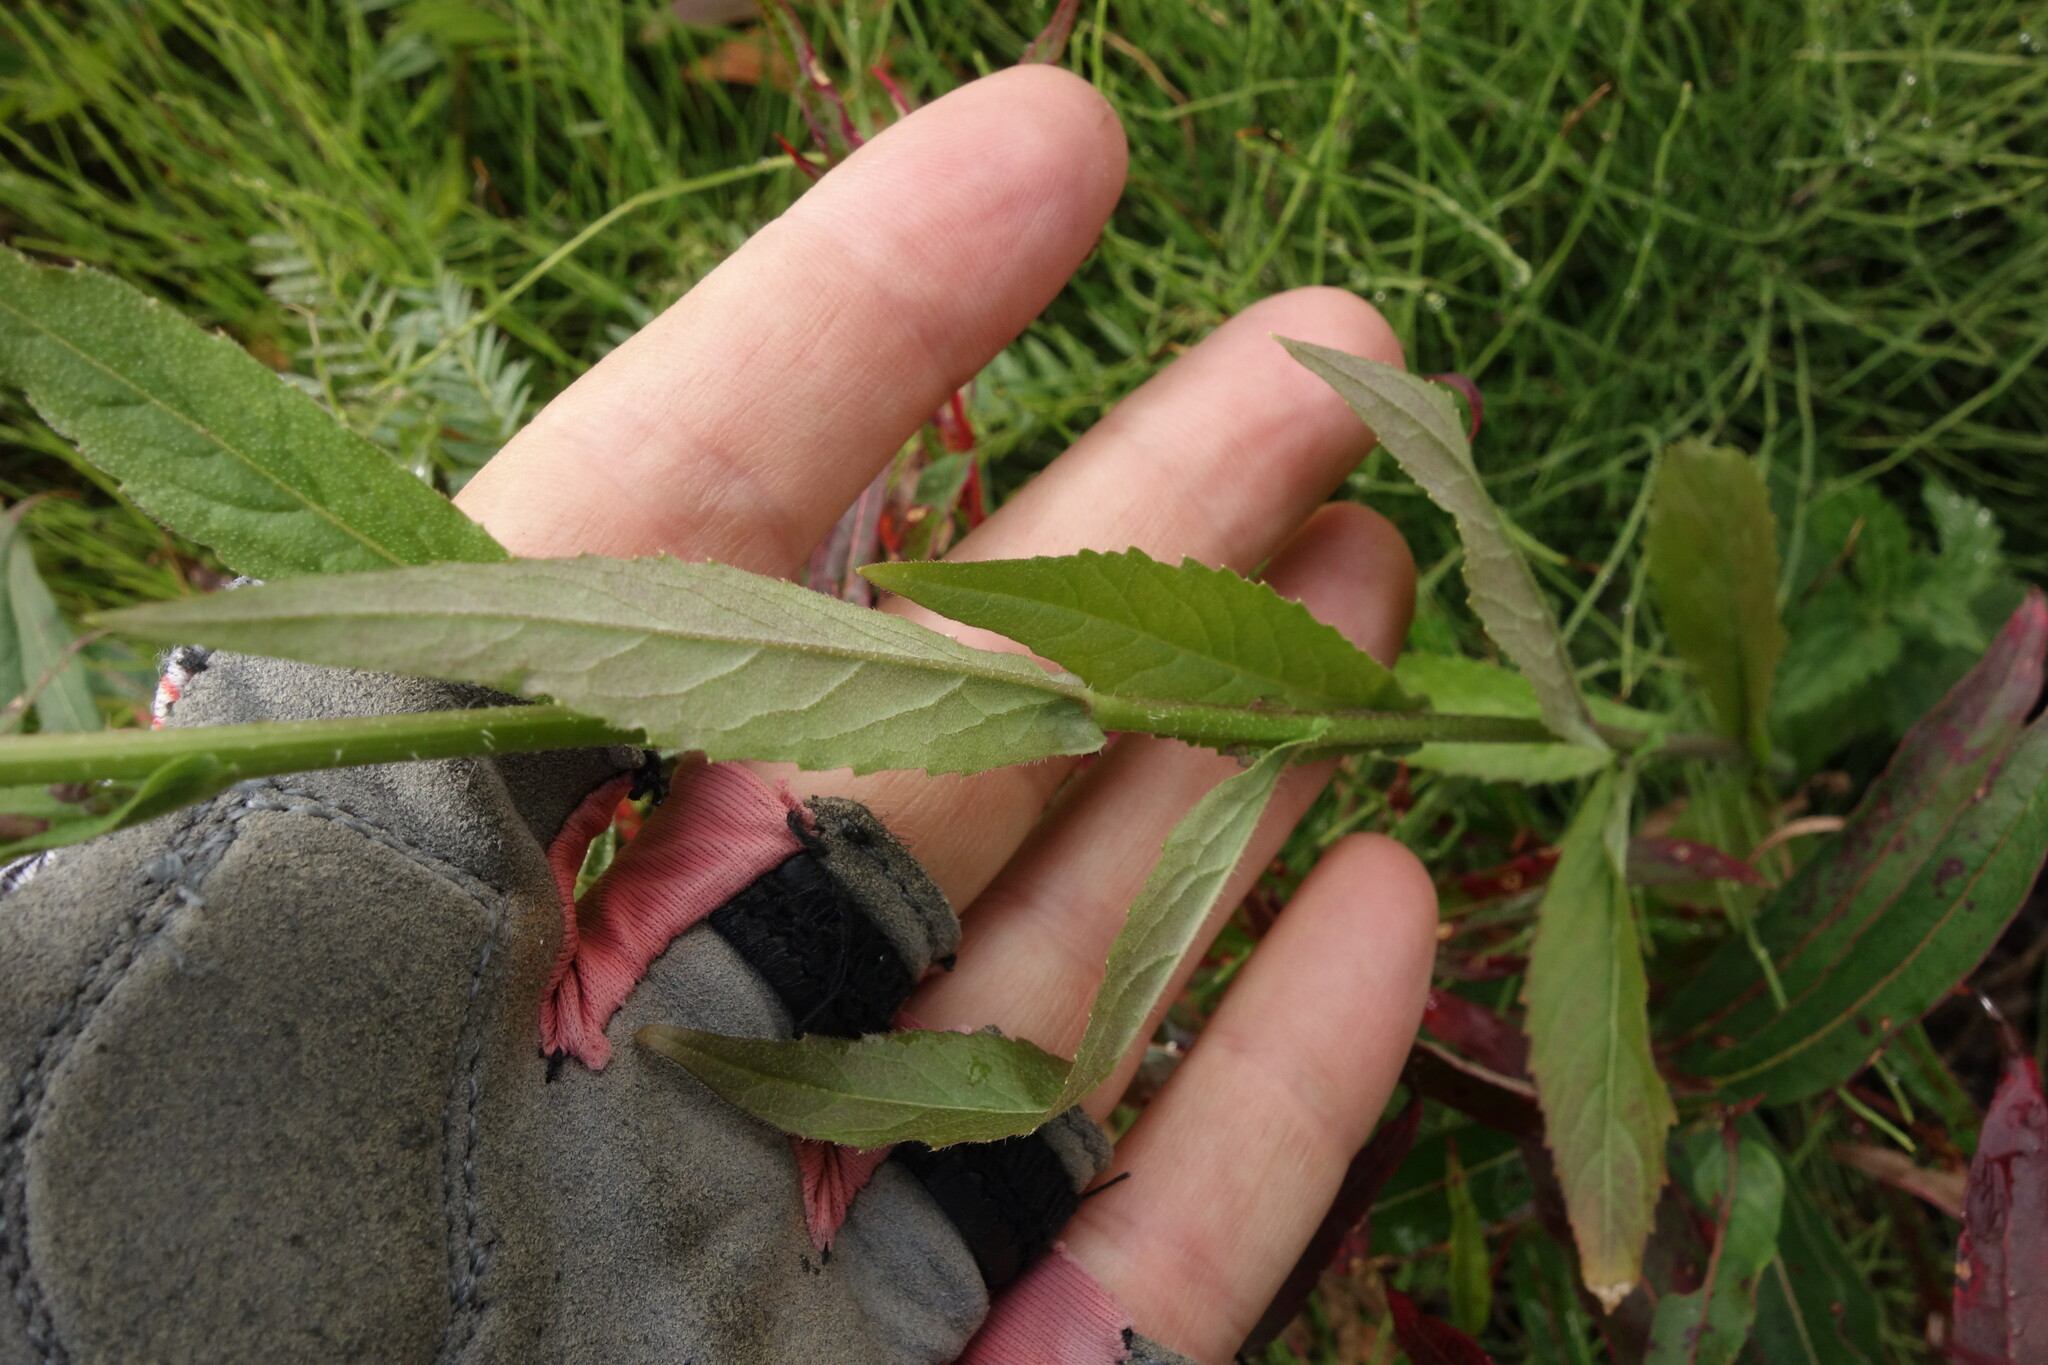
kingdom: Plantae
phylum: Tracheophyta
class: Magnoliopsida
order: Brassicales
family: Brassicaceae
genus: Catolobus
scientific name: Catolobus pendulus
